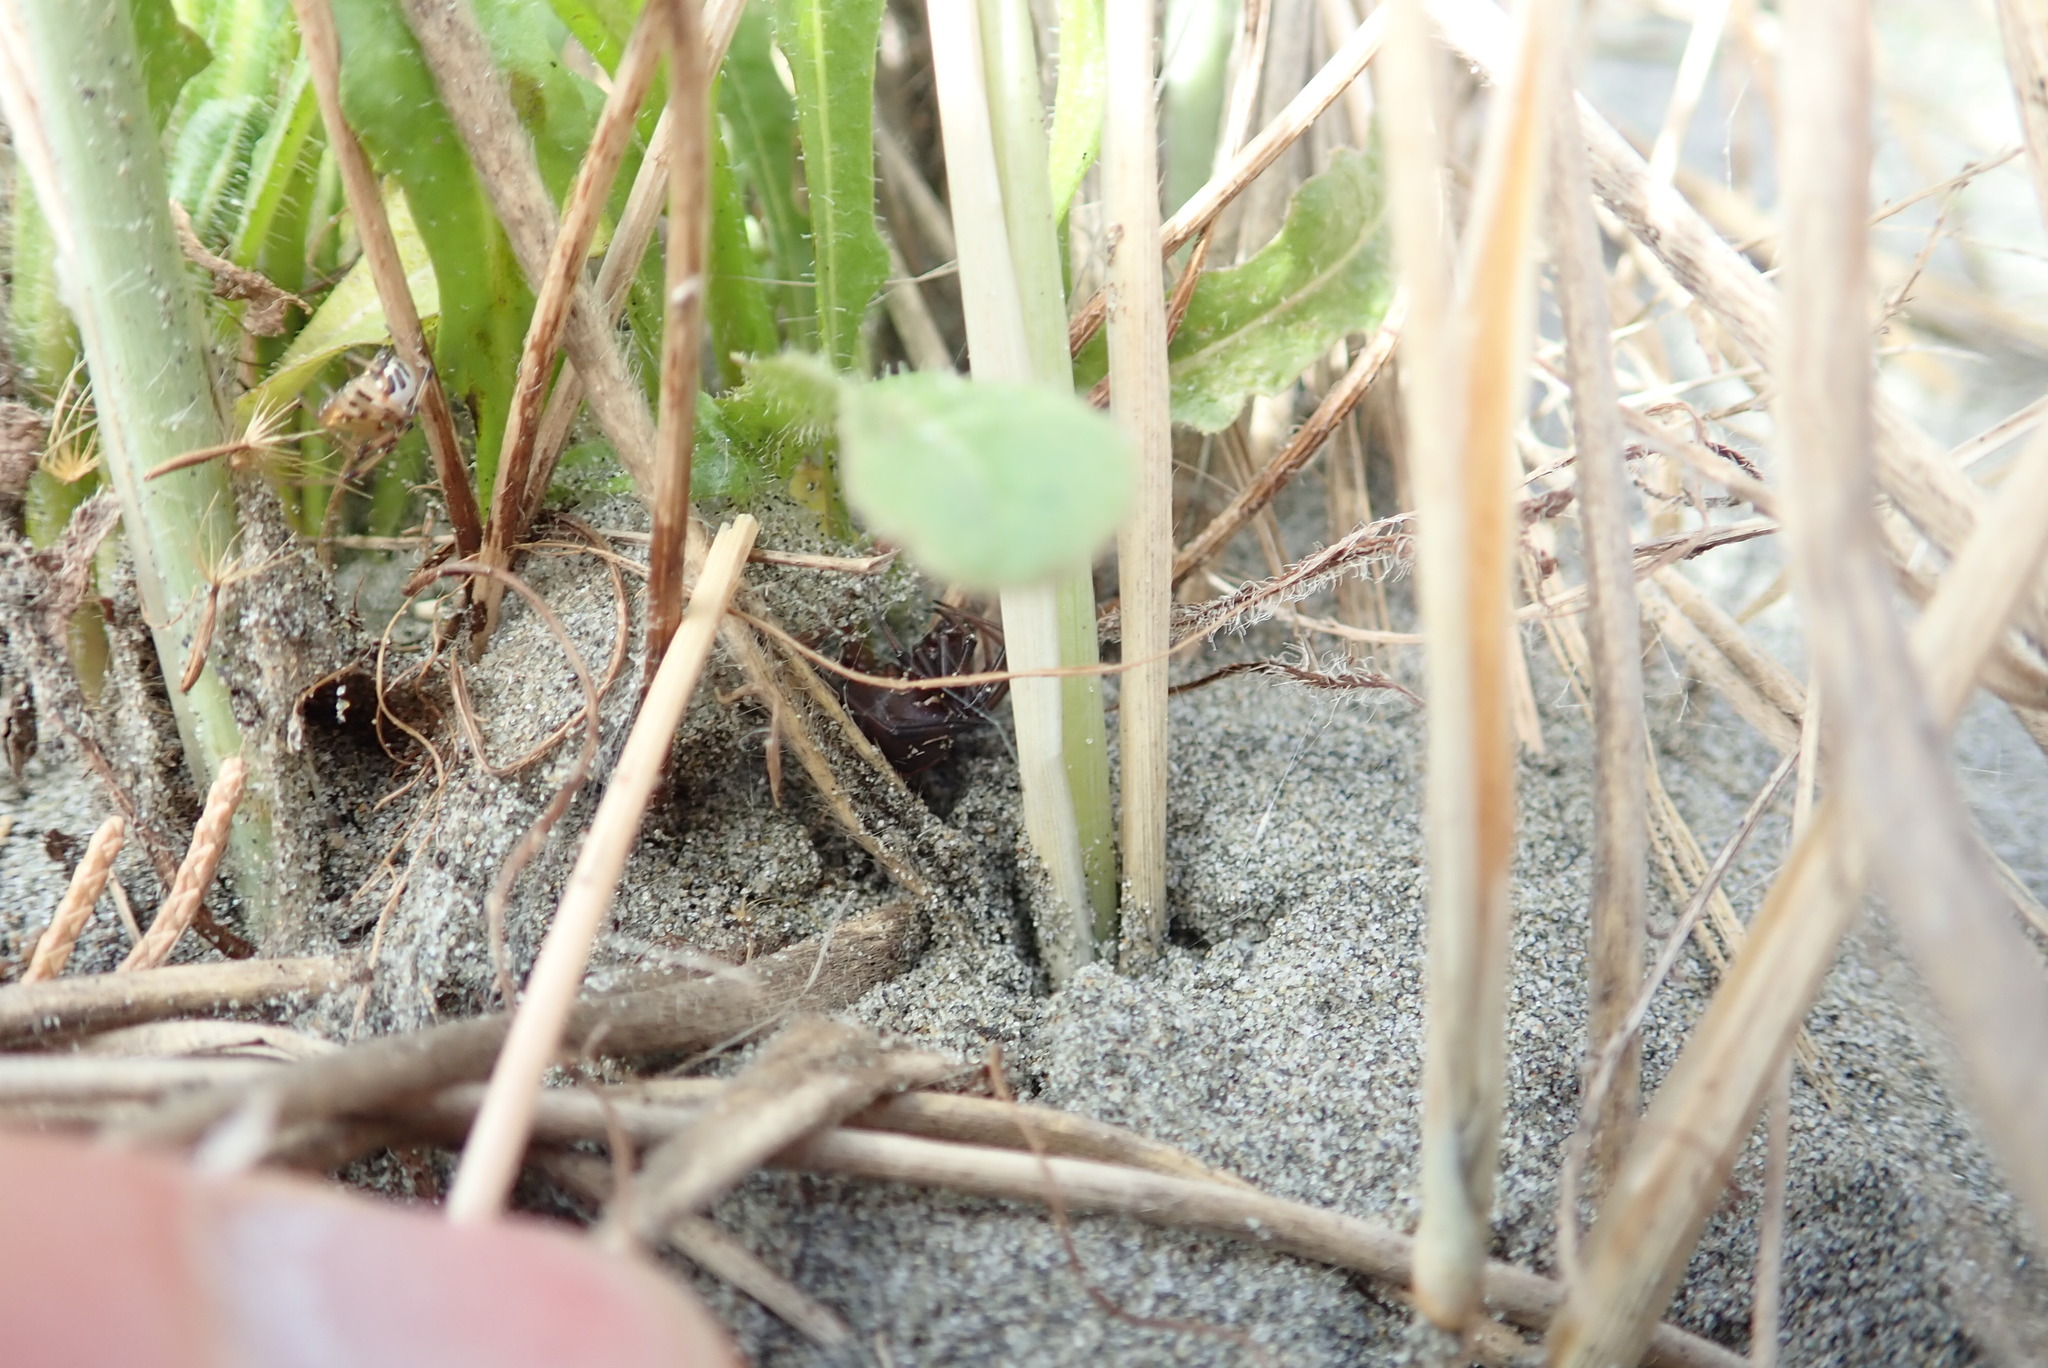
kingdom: Animalia
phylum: Arthropoda
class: Arachnida
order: Araneae
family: Theridiidae
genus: Latrodectus
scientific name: Latrodectus katipo
